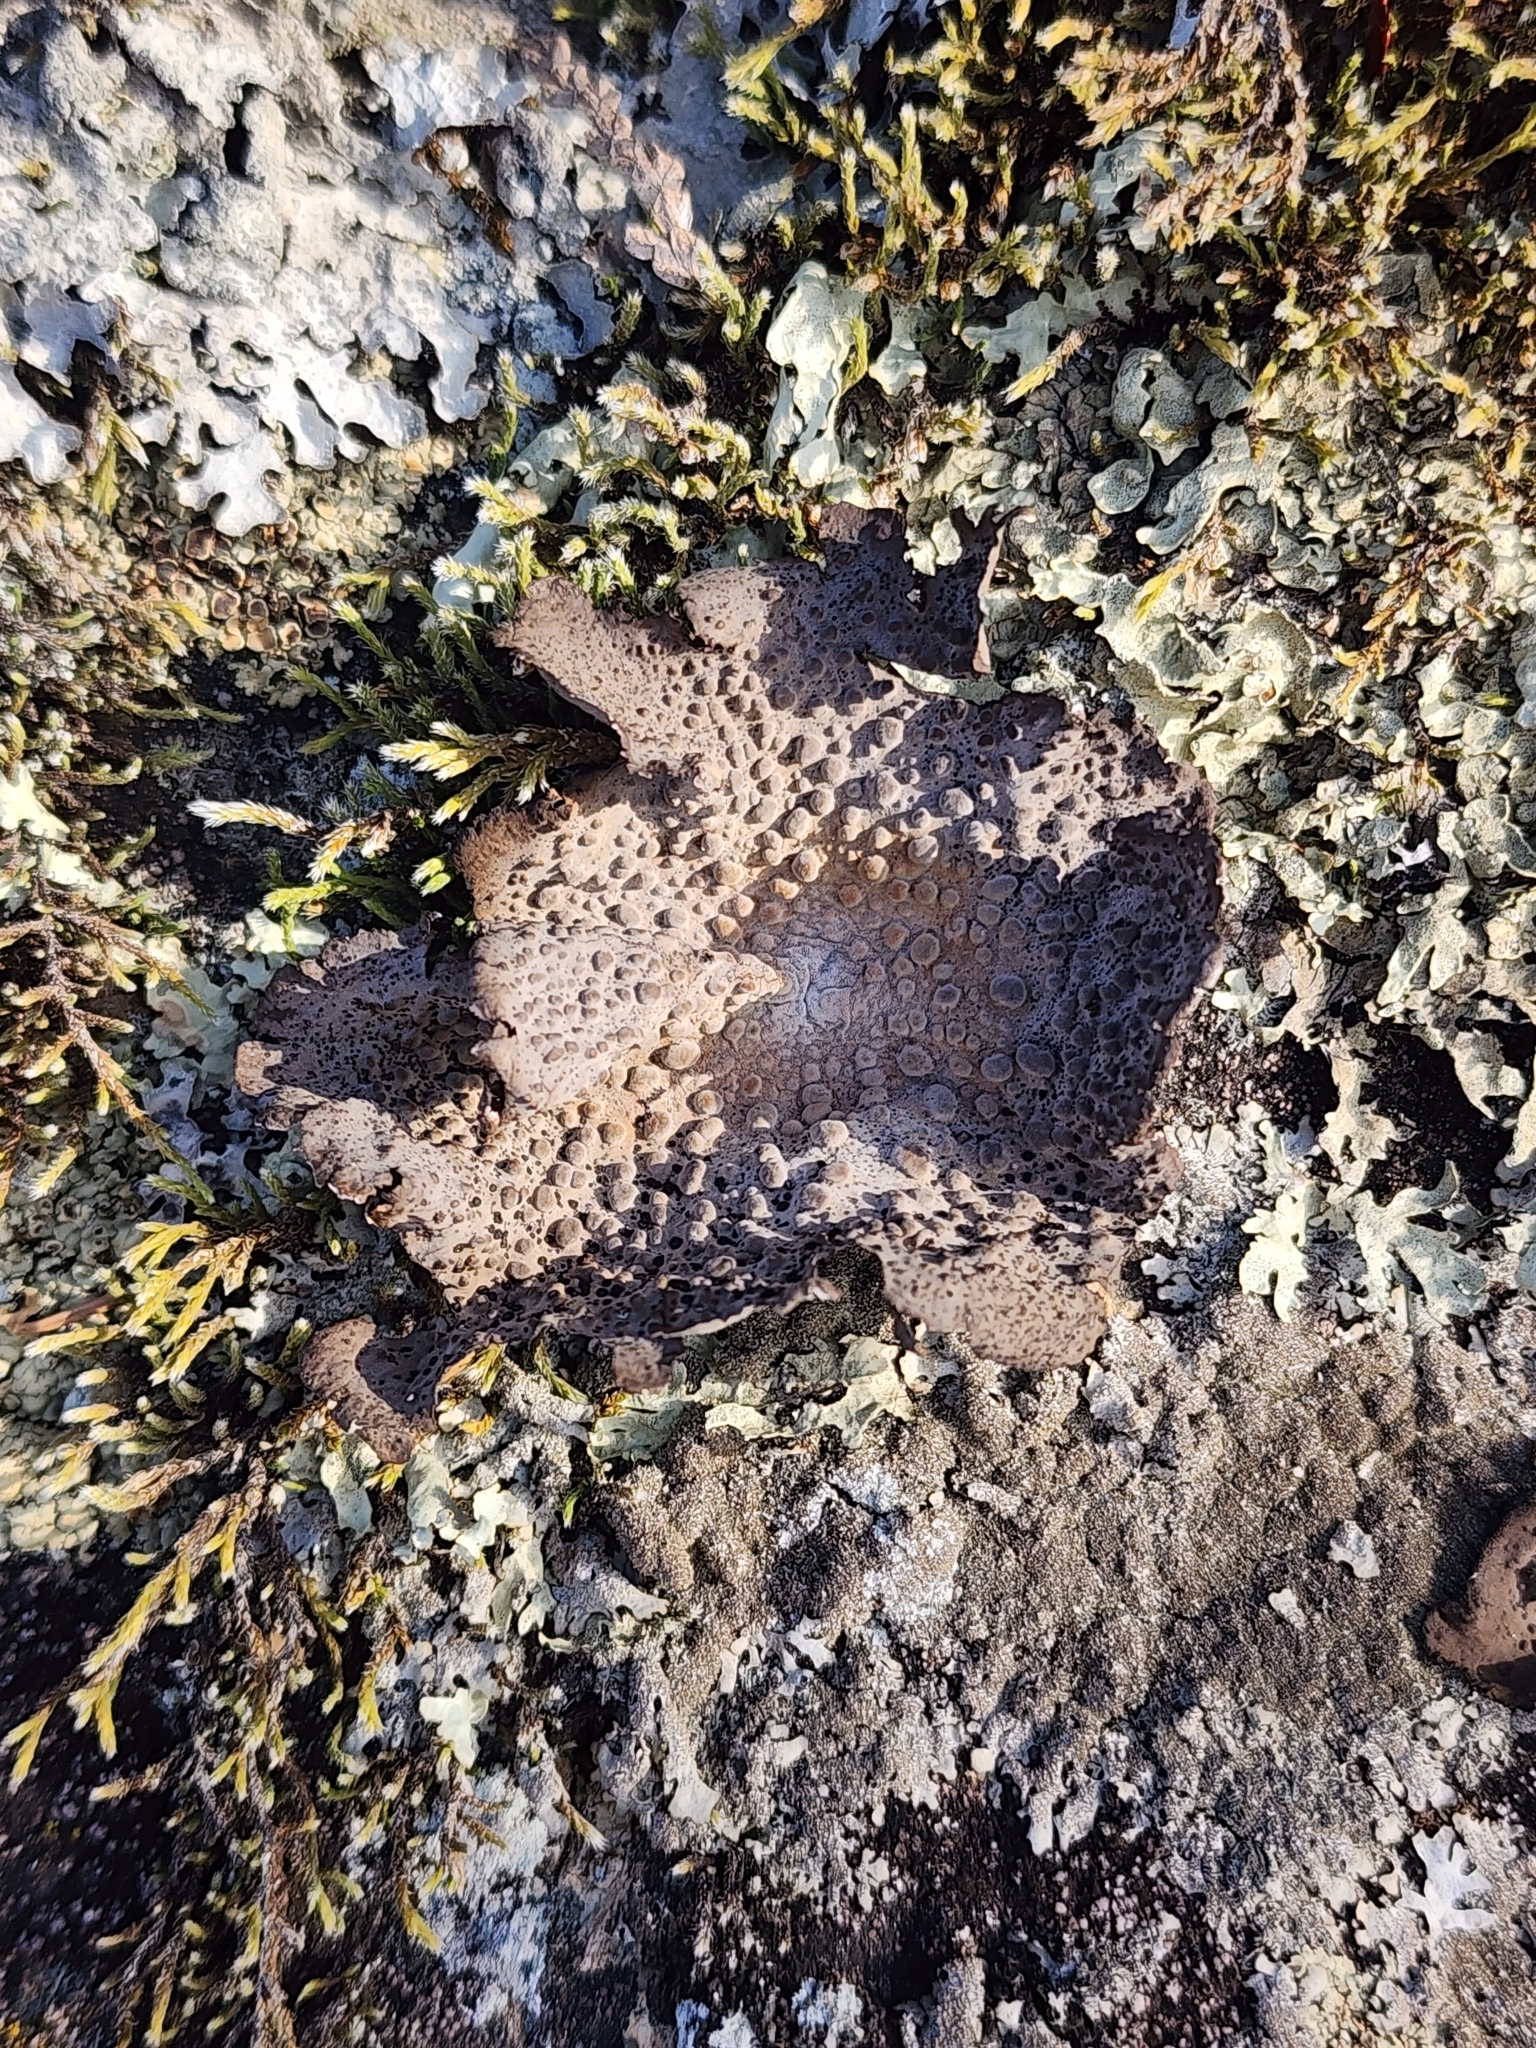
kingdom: Fungi
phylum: Ascomycota
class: Lecanoromycetes
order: Umbilicariales
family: Umbilicariaceae
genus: Lasallia
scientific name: Lasallia papulosa
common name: Common toadskin lichen
